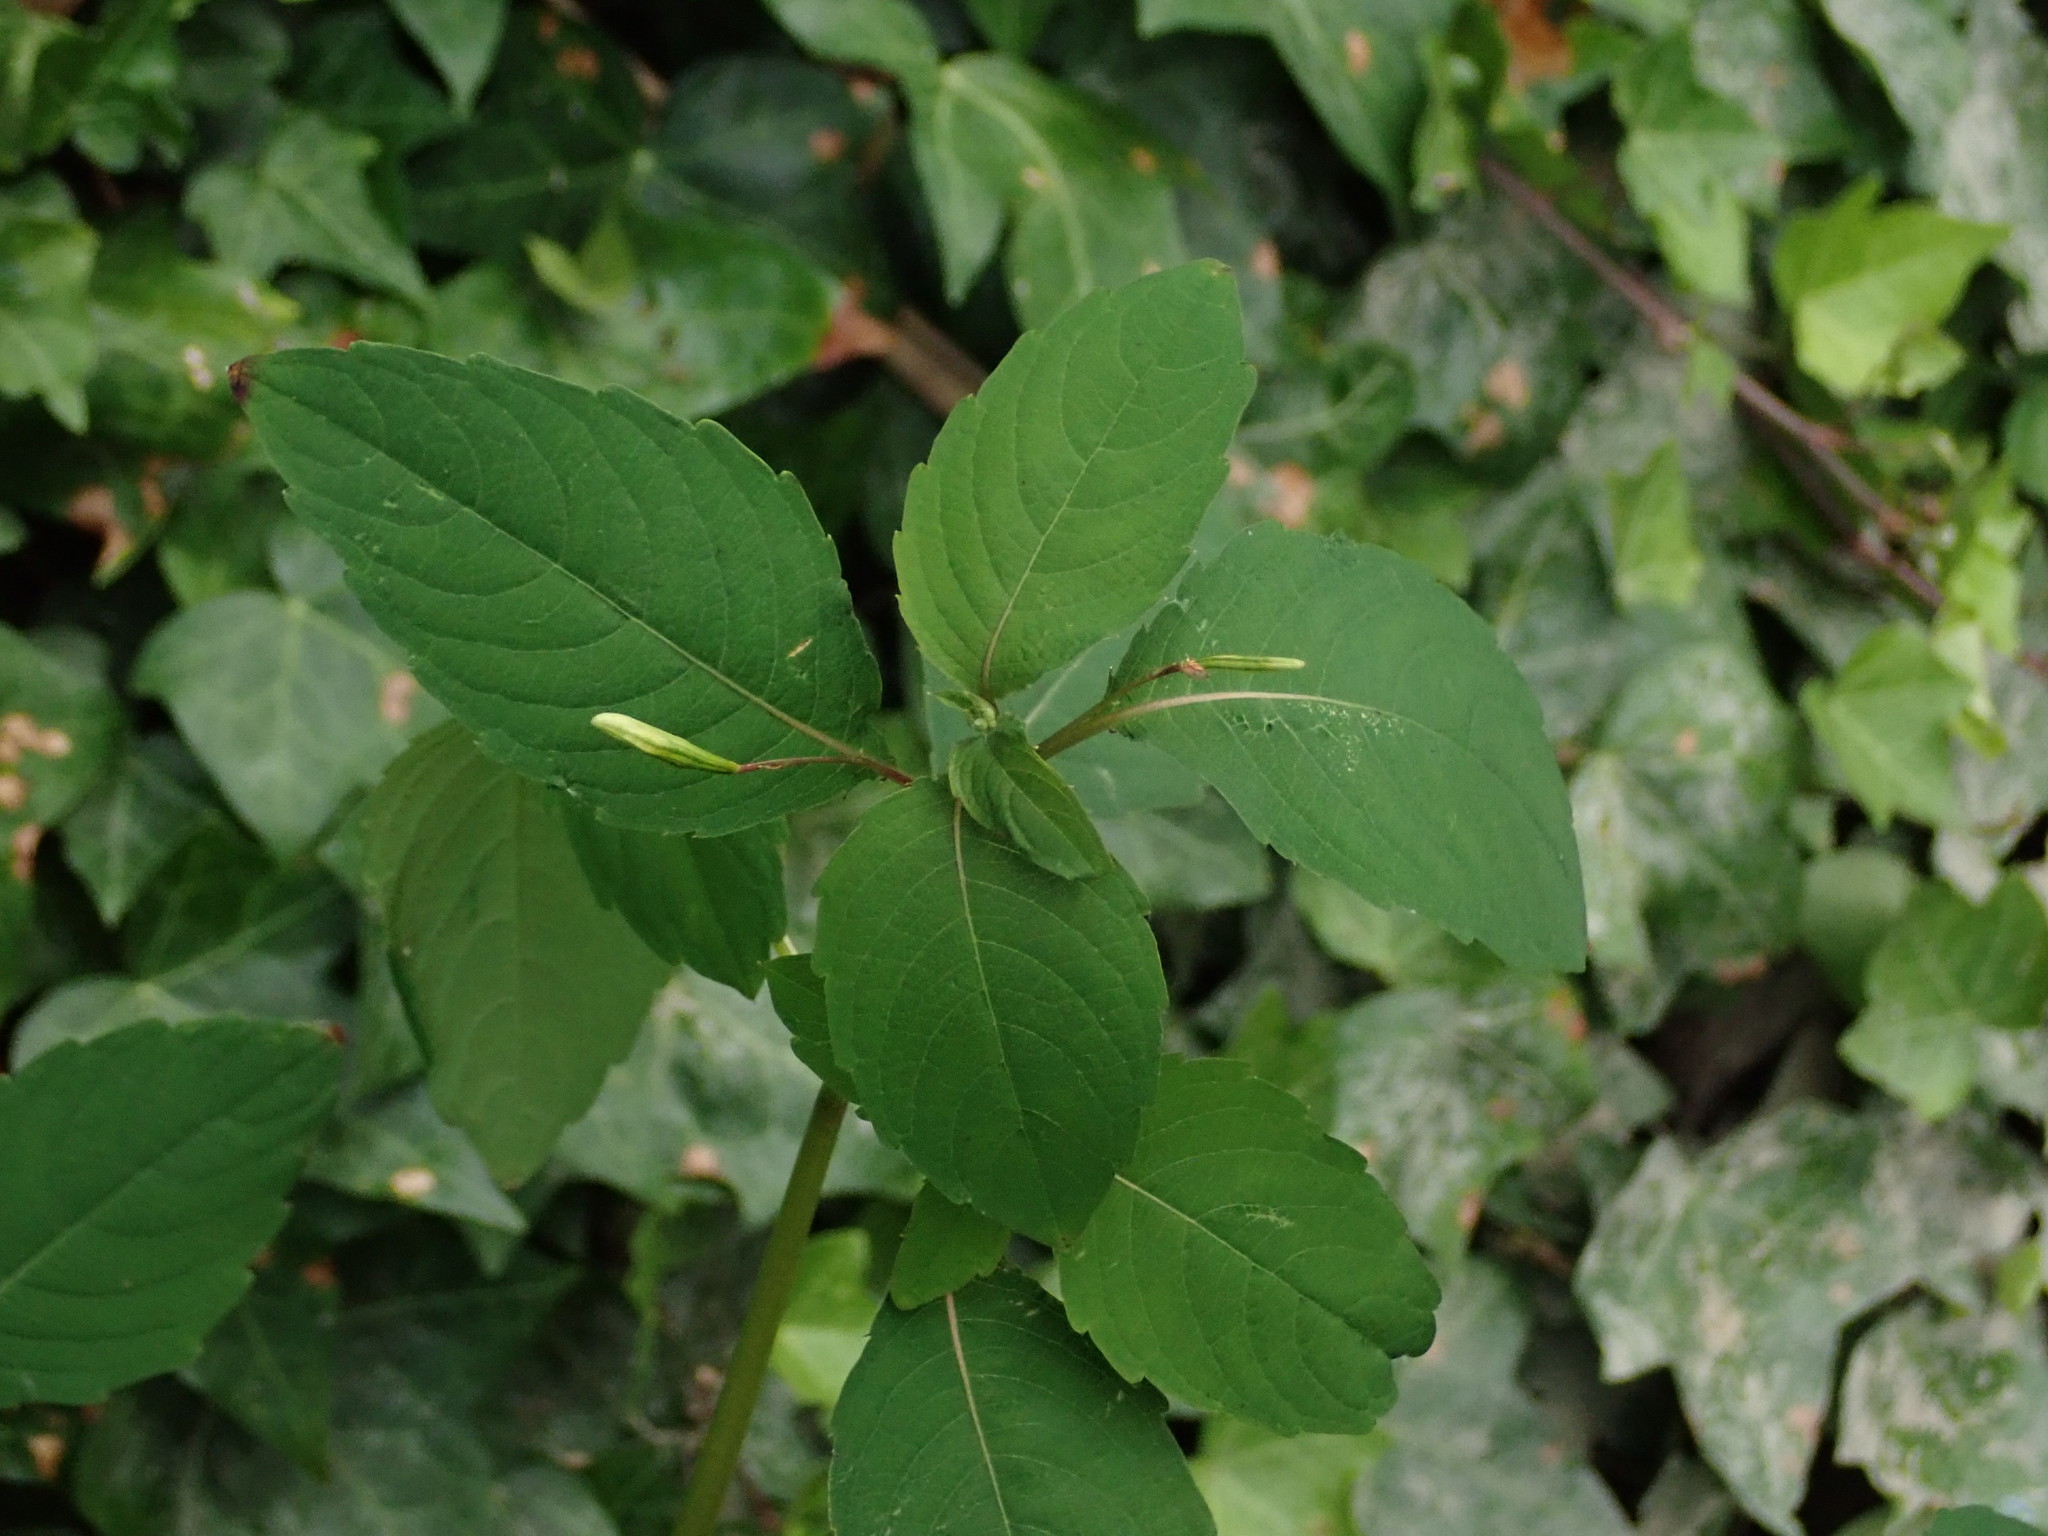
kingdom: Plantae
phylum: Tracheophyta
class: Magnoliopsida
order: Ericales
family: Balsaminaceae
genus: Impatiens
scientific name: Impatiens capensis
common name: Orange balsam
